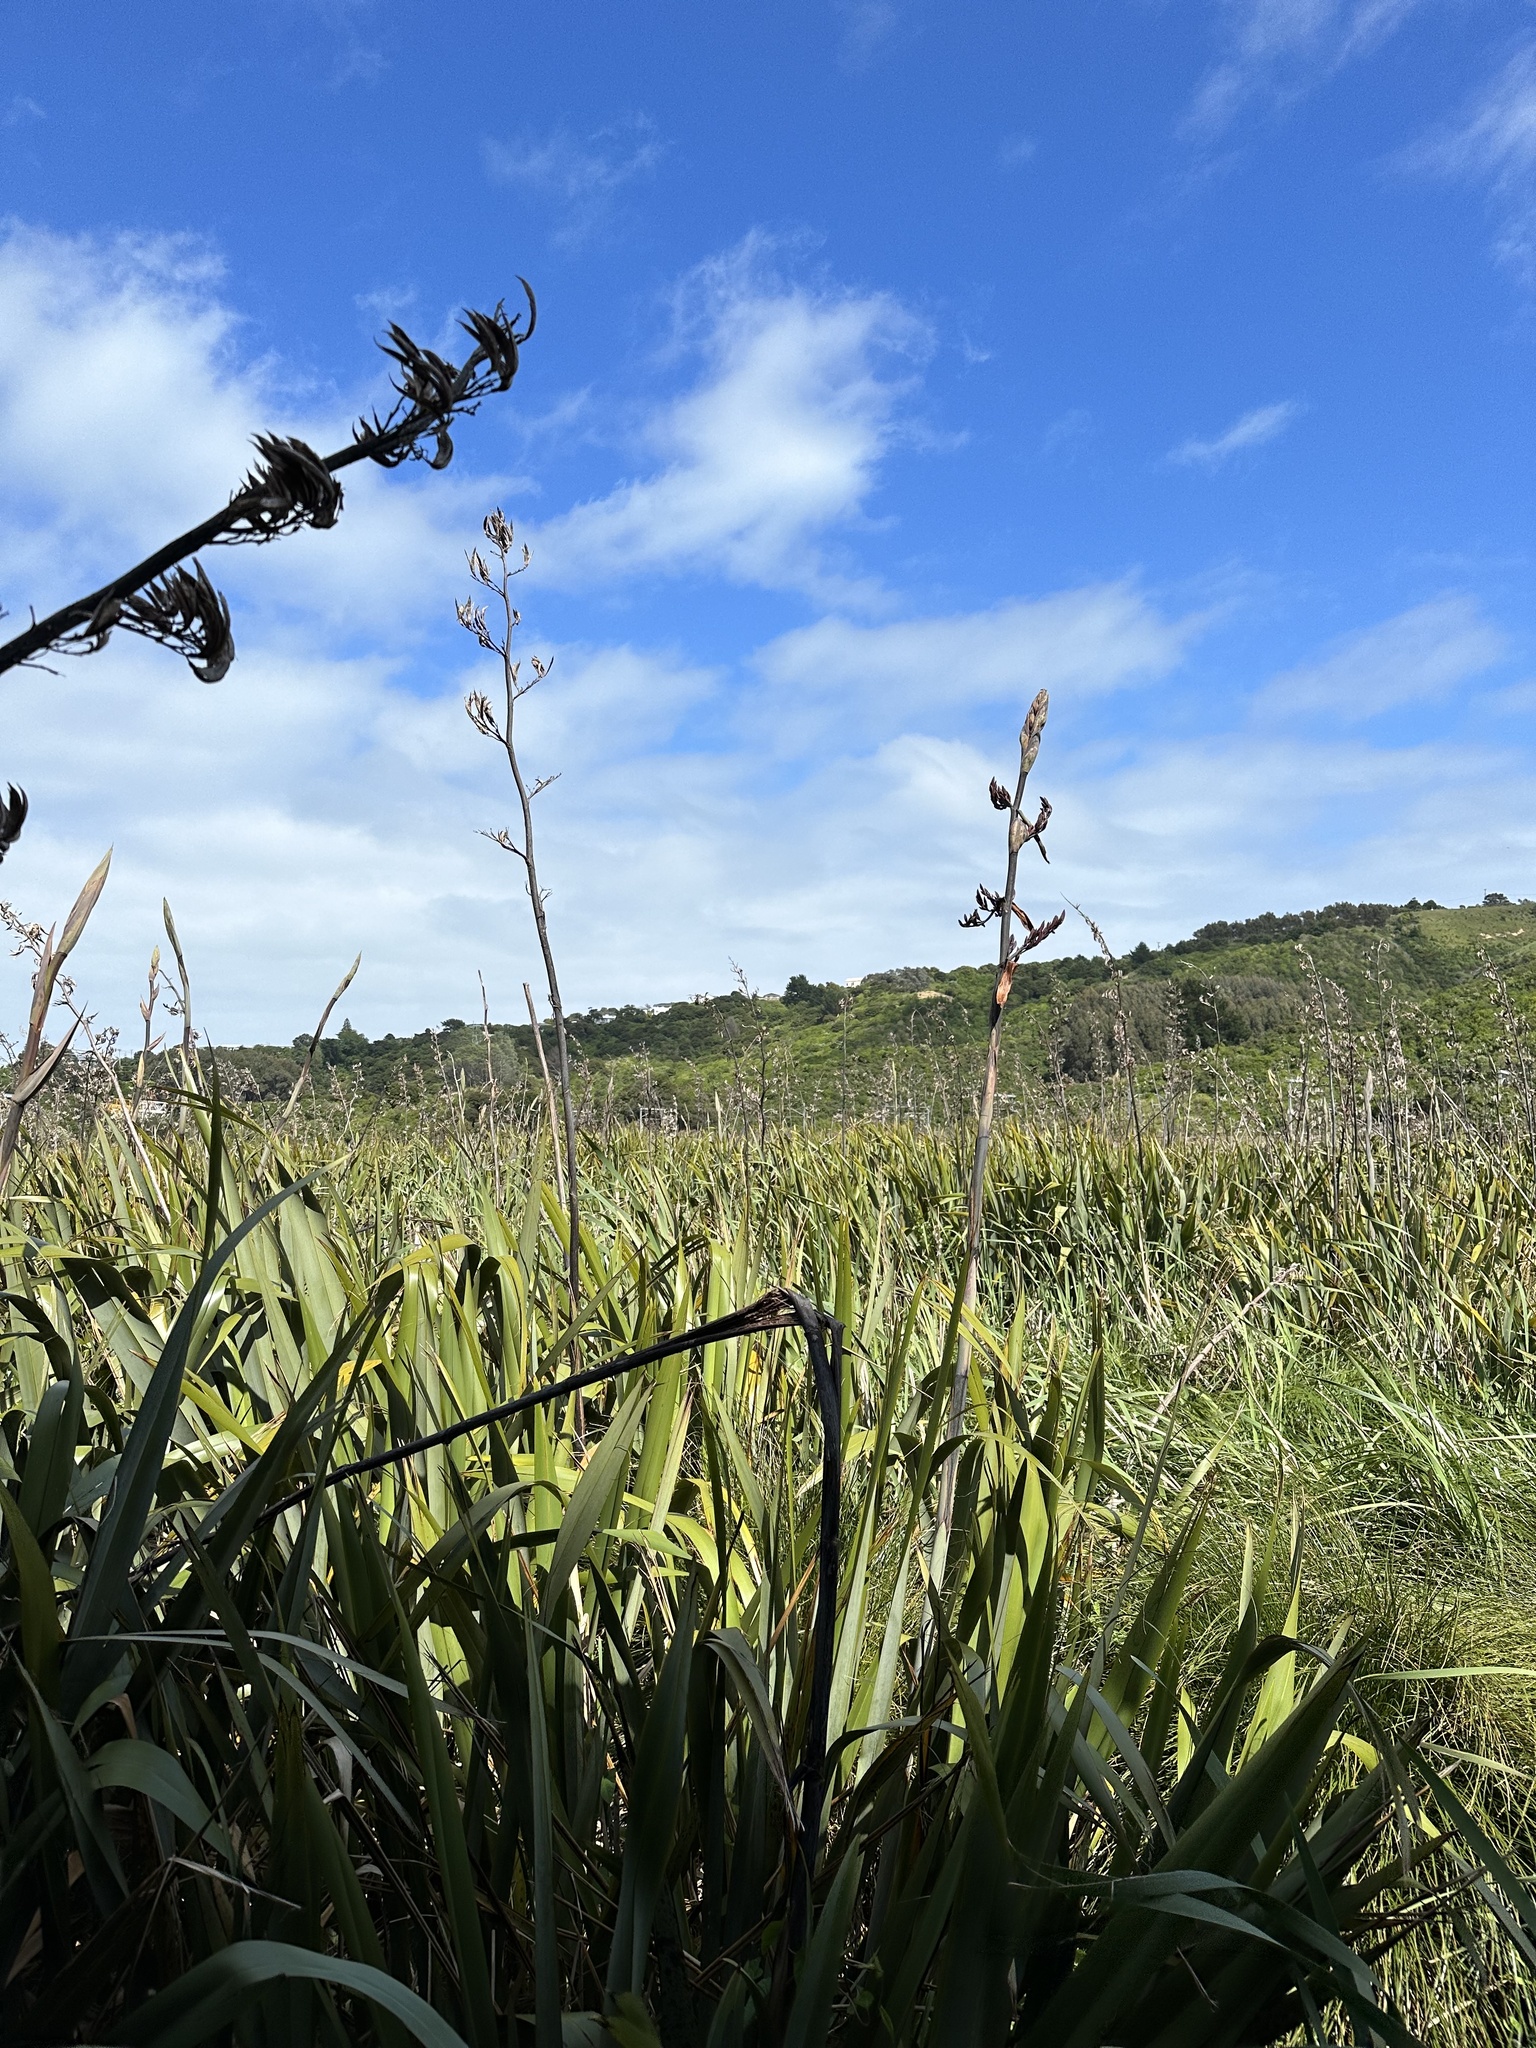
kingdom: Plantae
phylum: Tracheophyta
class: Liliopsida
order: Asparagales
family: Asphodelaceae
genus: Phormium
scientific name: Phormium tenax
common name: New zealand flax
